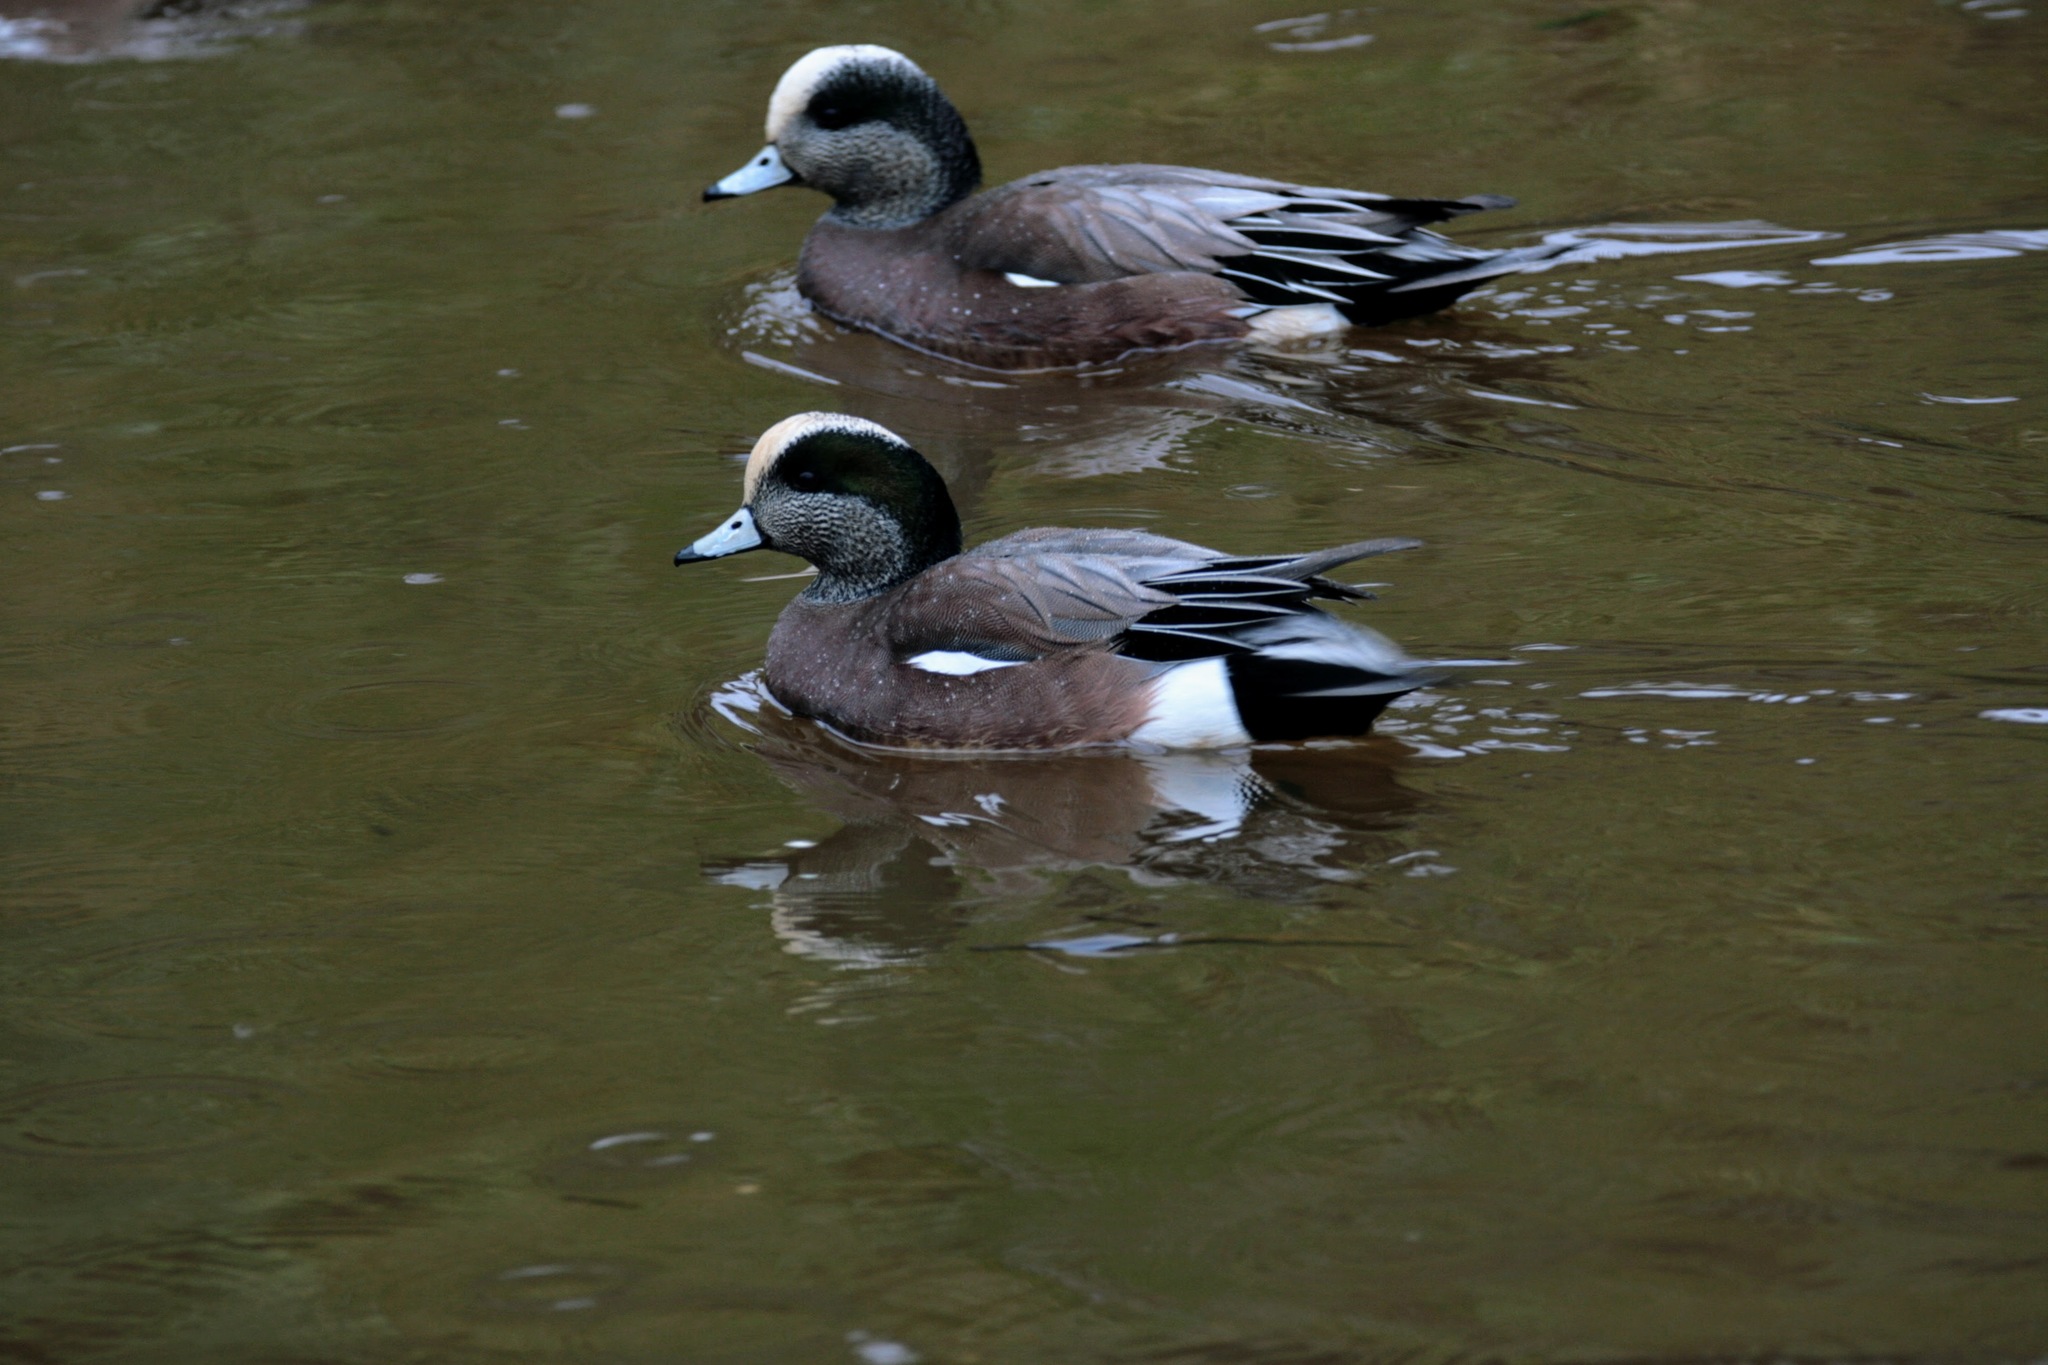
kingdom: Animalia
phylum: Chordata
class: Aves
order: Anseriformes
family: Anatidae
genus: Mareca
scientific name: Mareca americana
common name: American wigeon
